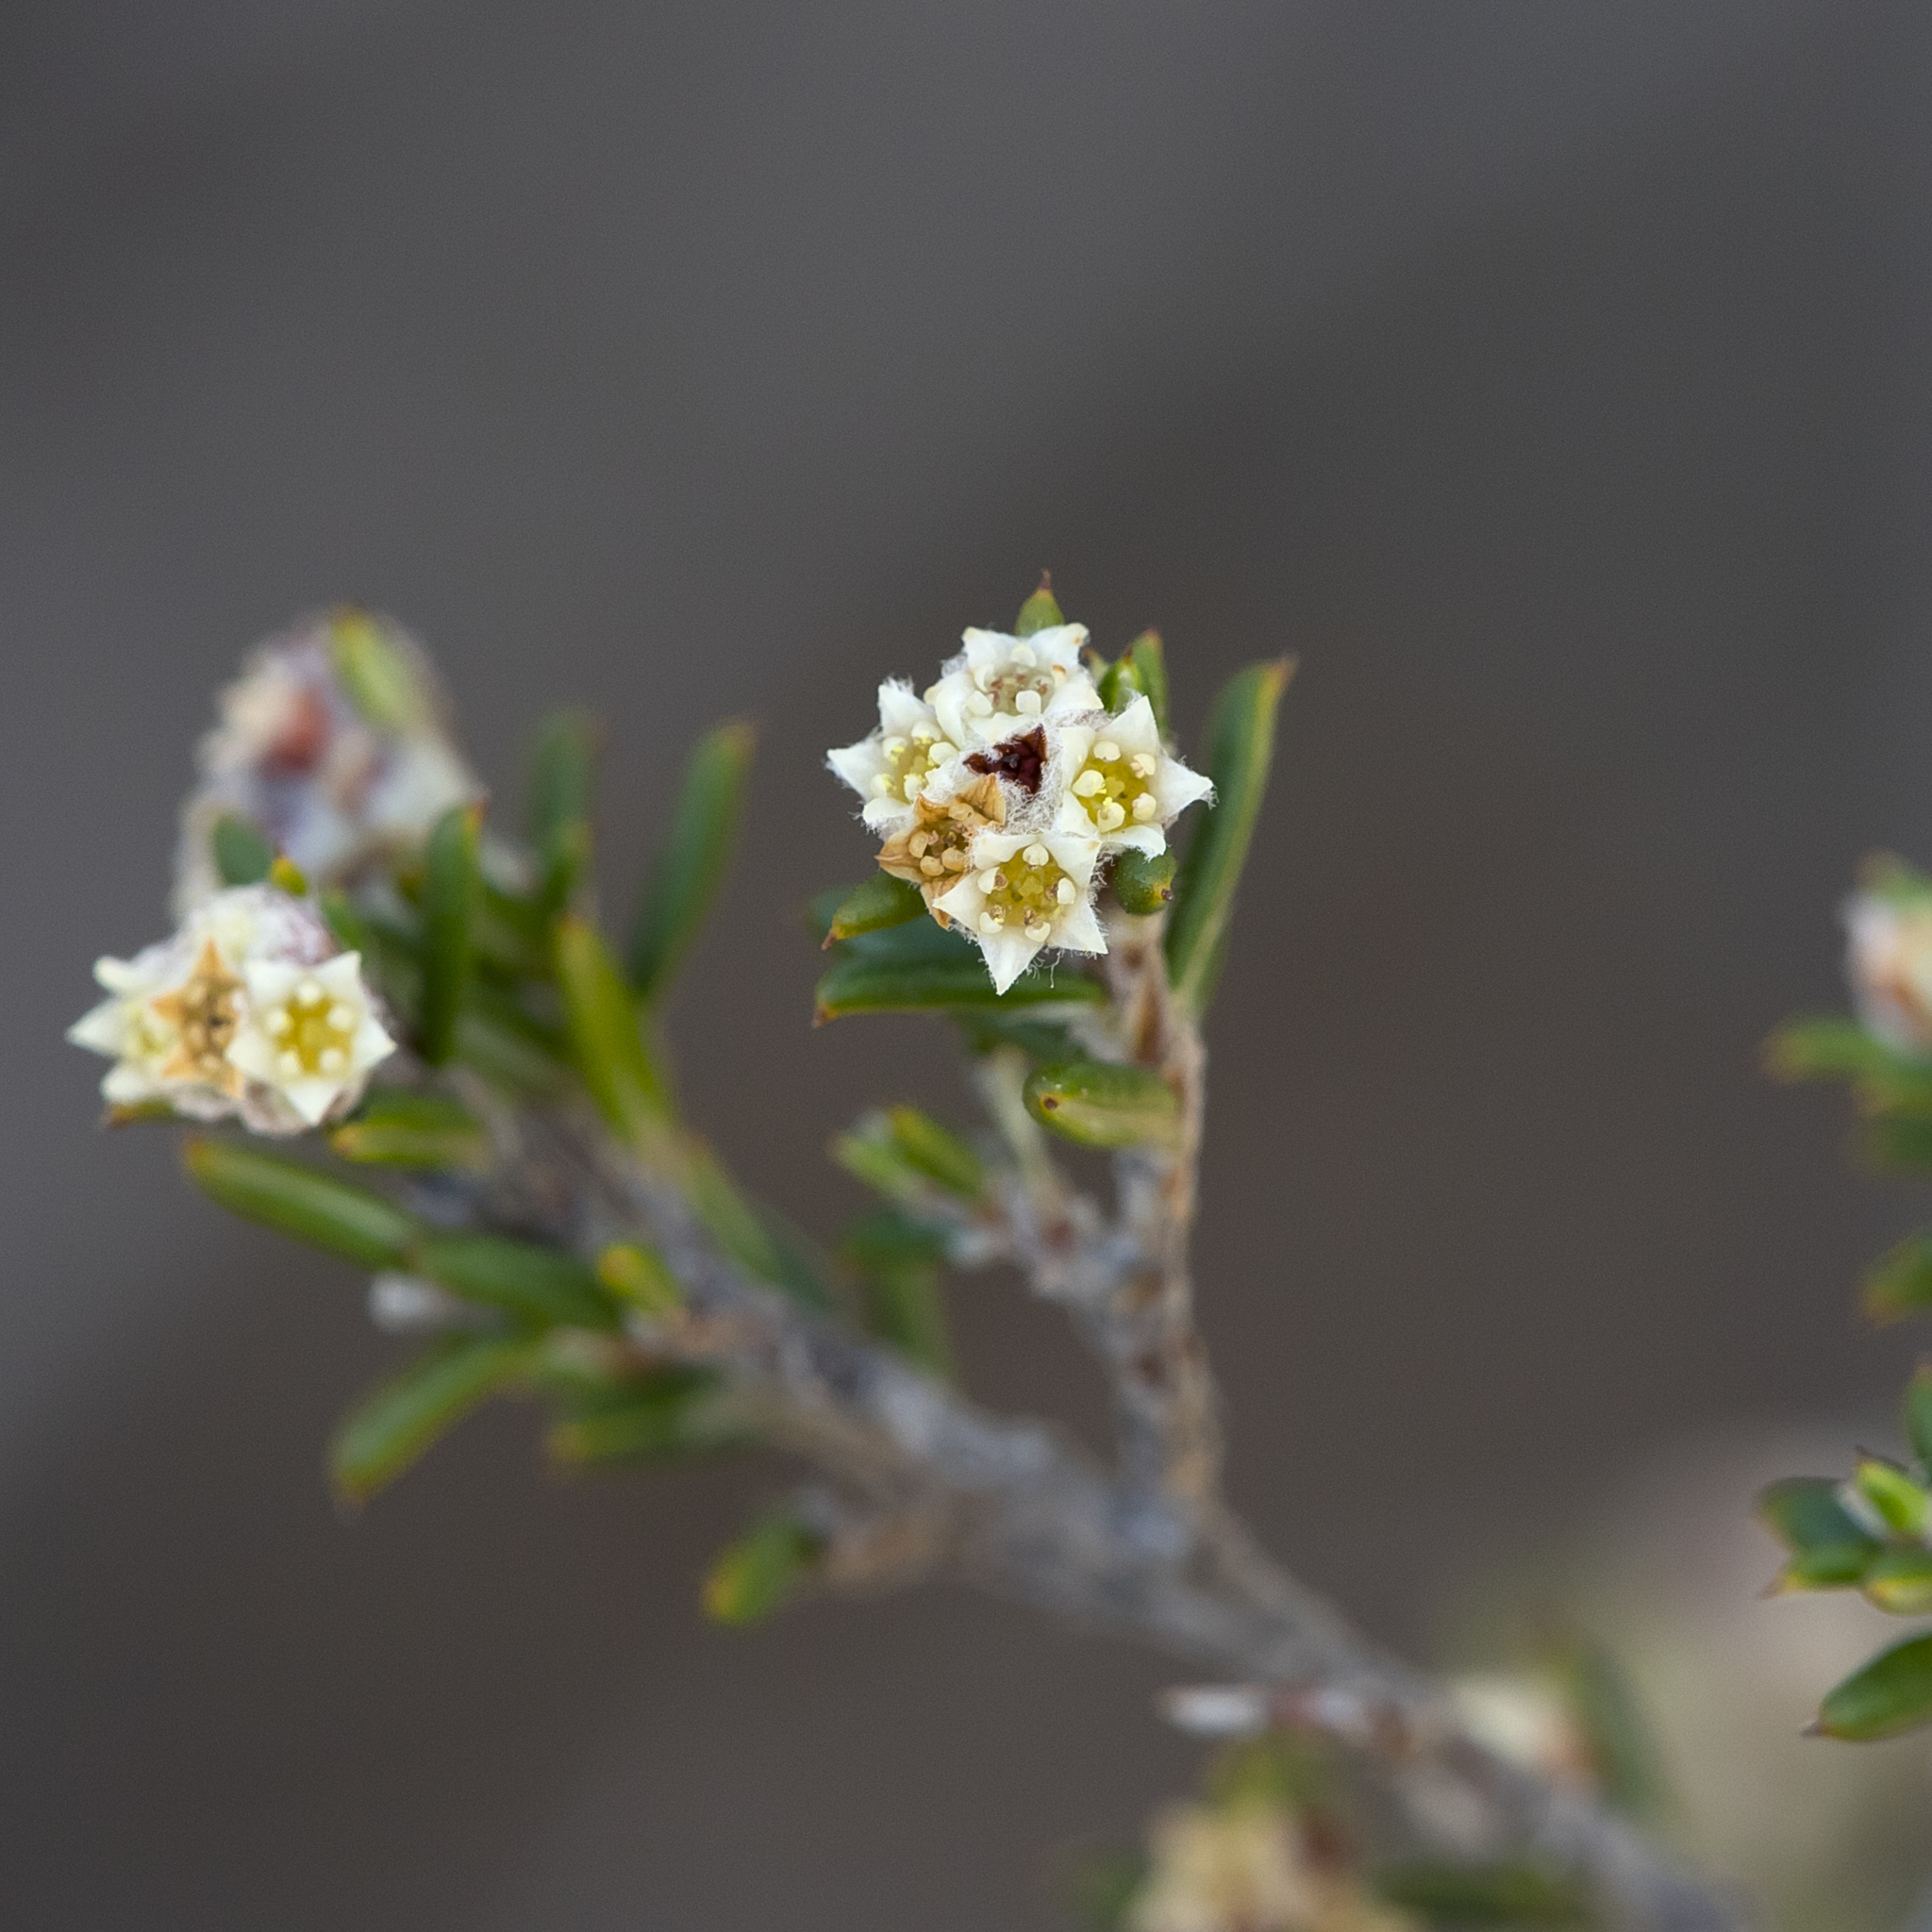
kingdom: Plantae
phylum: Tracheophyta
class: Magnoliopsida
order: Rosales
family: Rhamnaceae
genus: Spyridium
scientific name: Spyridium eriocephalum
